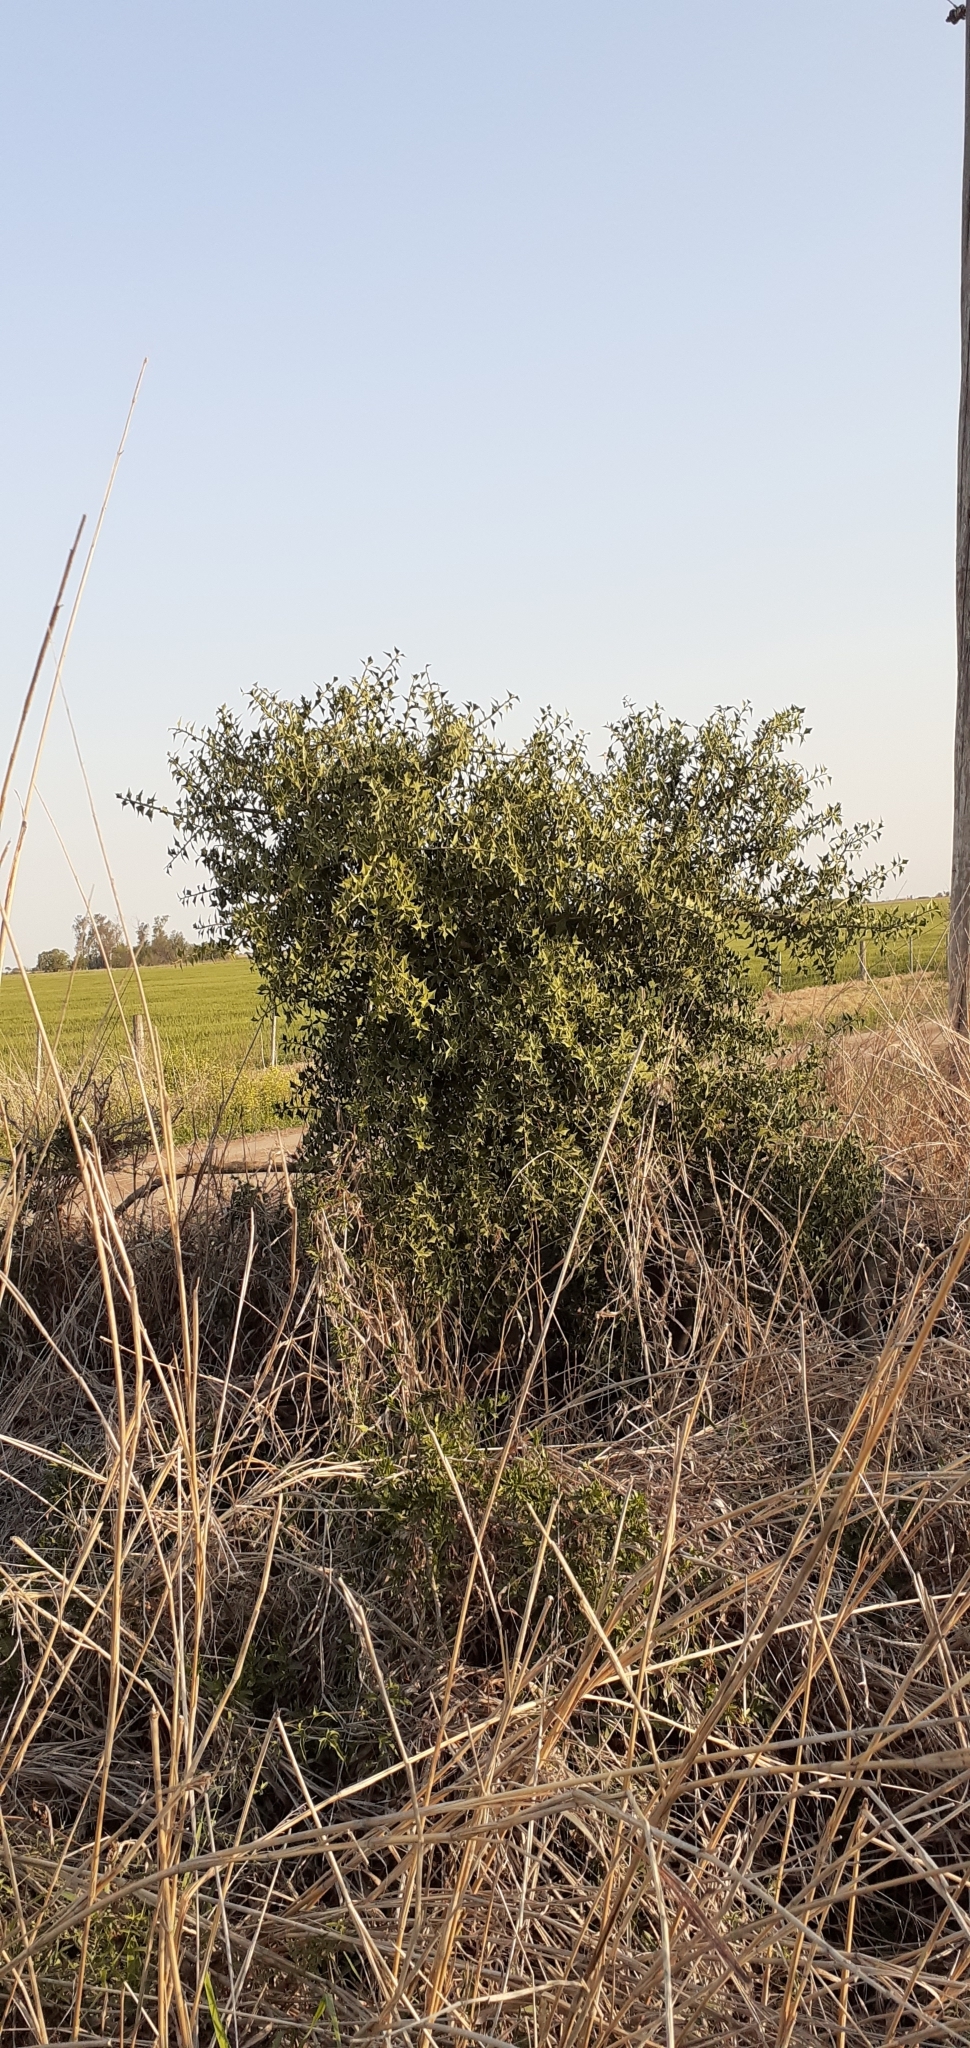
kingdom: Plantae
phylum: Tracheophyta
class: Magnoliopsida
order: Santalales
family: Cervantesiaceae
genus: Jodina
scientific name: Jodina rhombifolia
